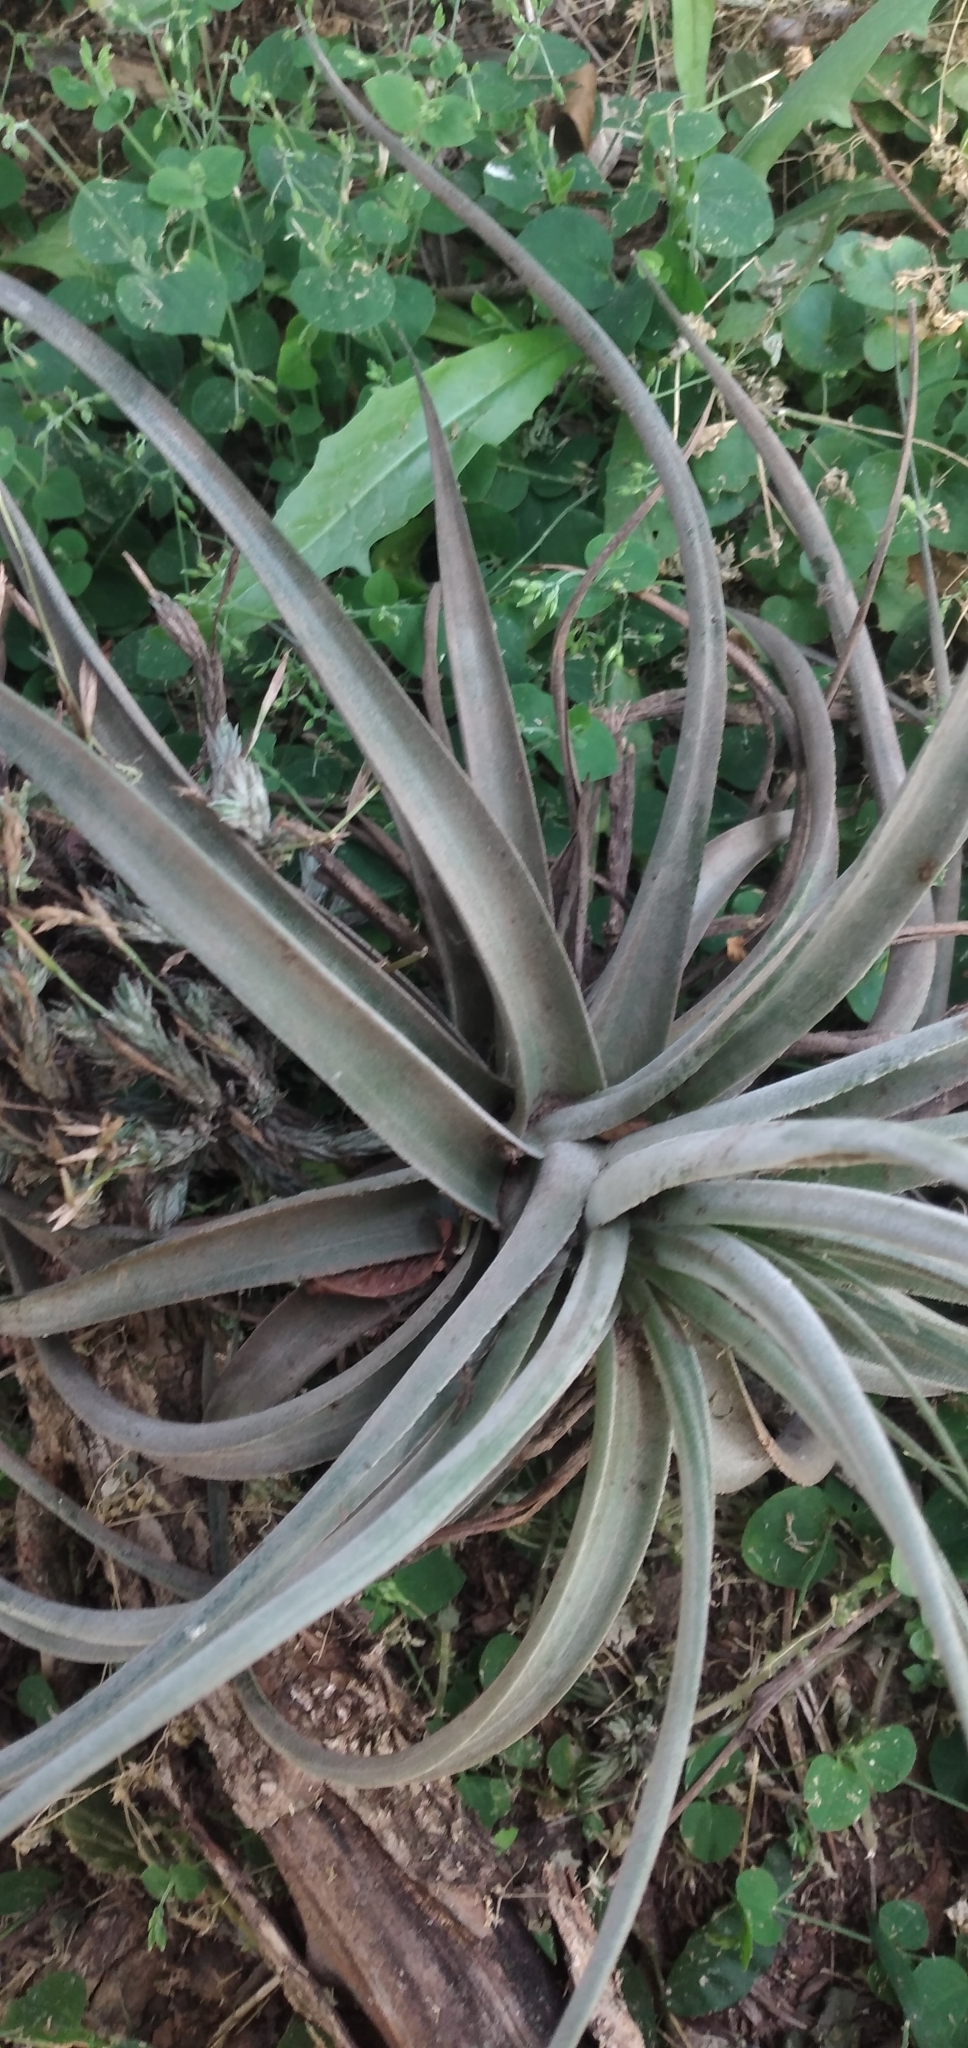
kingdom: Plantae
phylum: Tracheophyta
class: Liliopsida
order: Poales
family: Bromeliaceae
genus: Tillandsia
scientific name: Tillandsia didisticha
